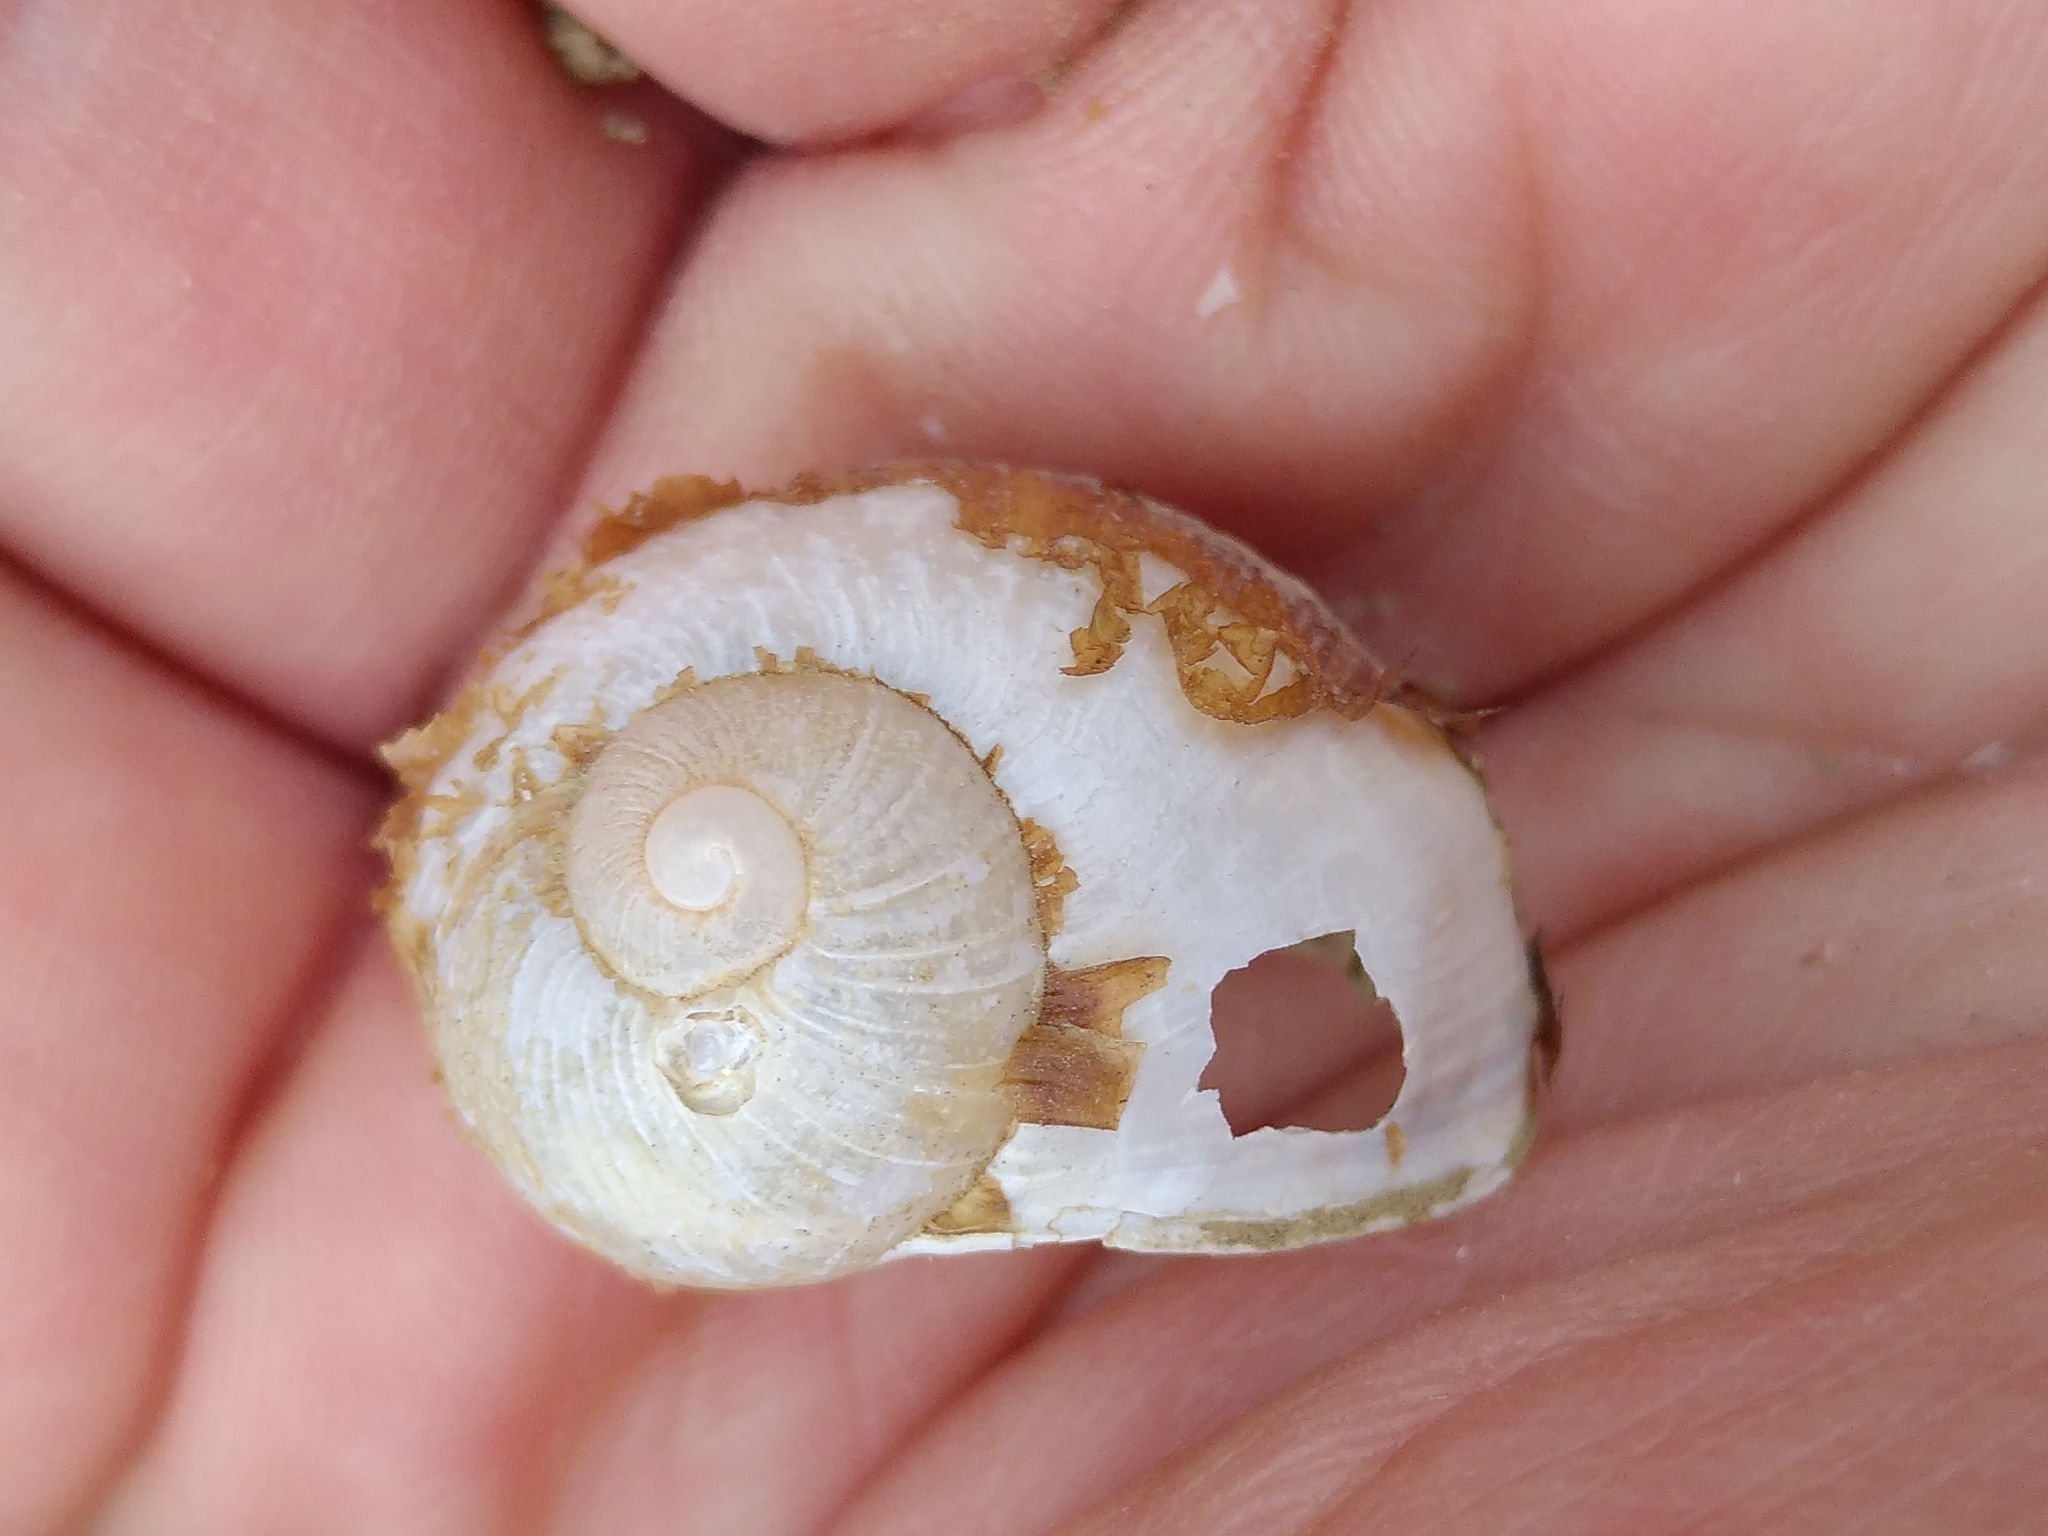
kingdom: Animalia
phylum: Mollusca
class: Gastropoda
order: Stylommatophora
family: Helicidae
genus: Cantareus
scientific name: Cantareus apertus
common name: Green gardensnail
